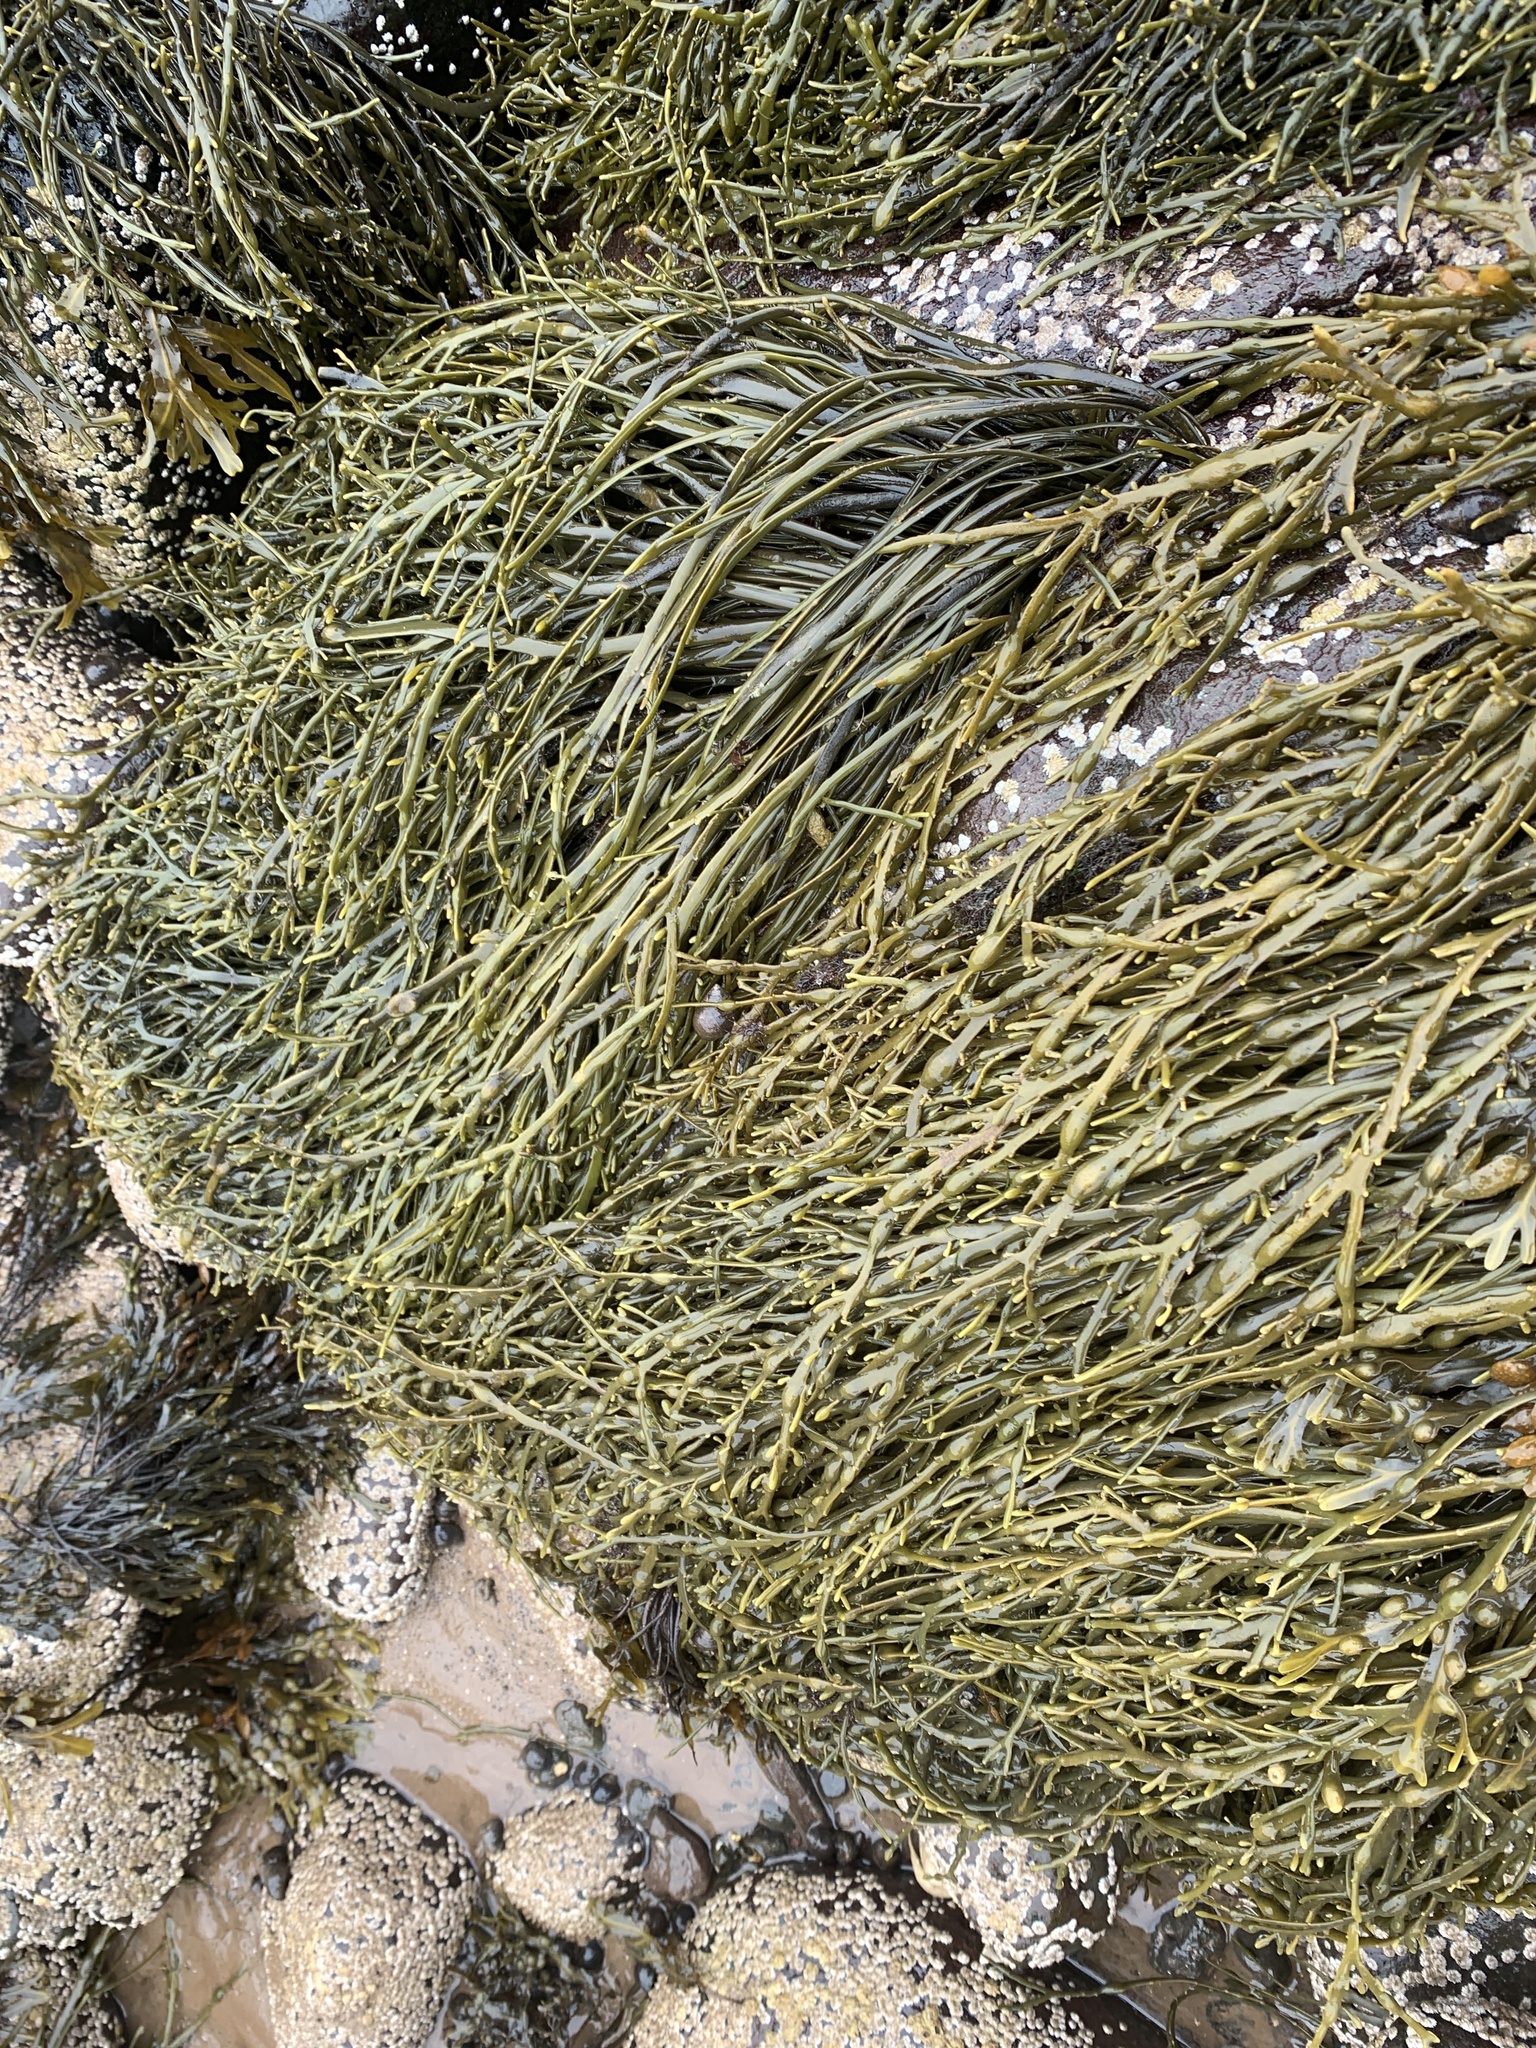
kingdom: Chromista
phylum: Ochrophyta
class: Phaeophyceae
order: Fucales
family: Fucaceae
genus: Ascophyllum
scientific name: Ascophyllum nodosum
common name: Knotted wrack
